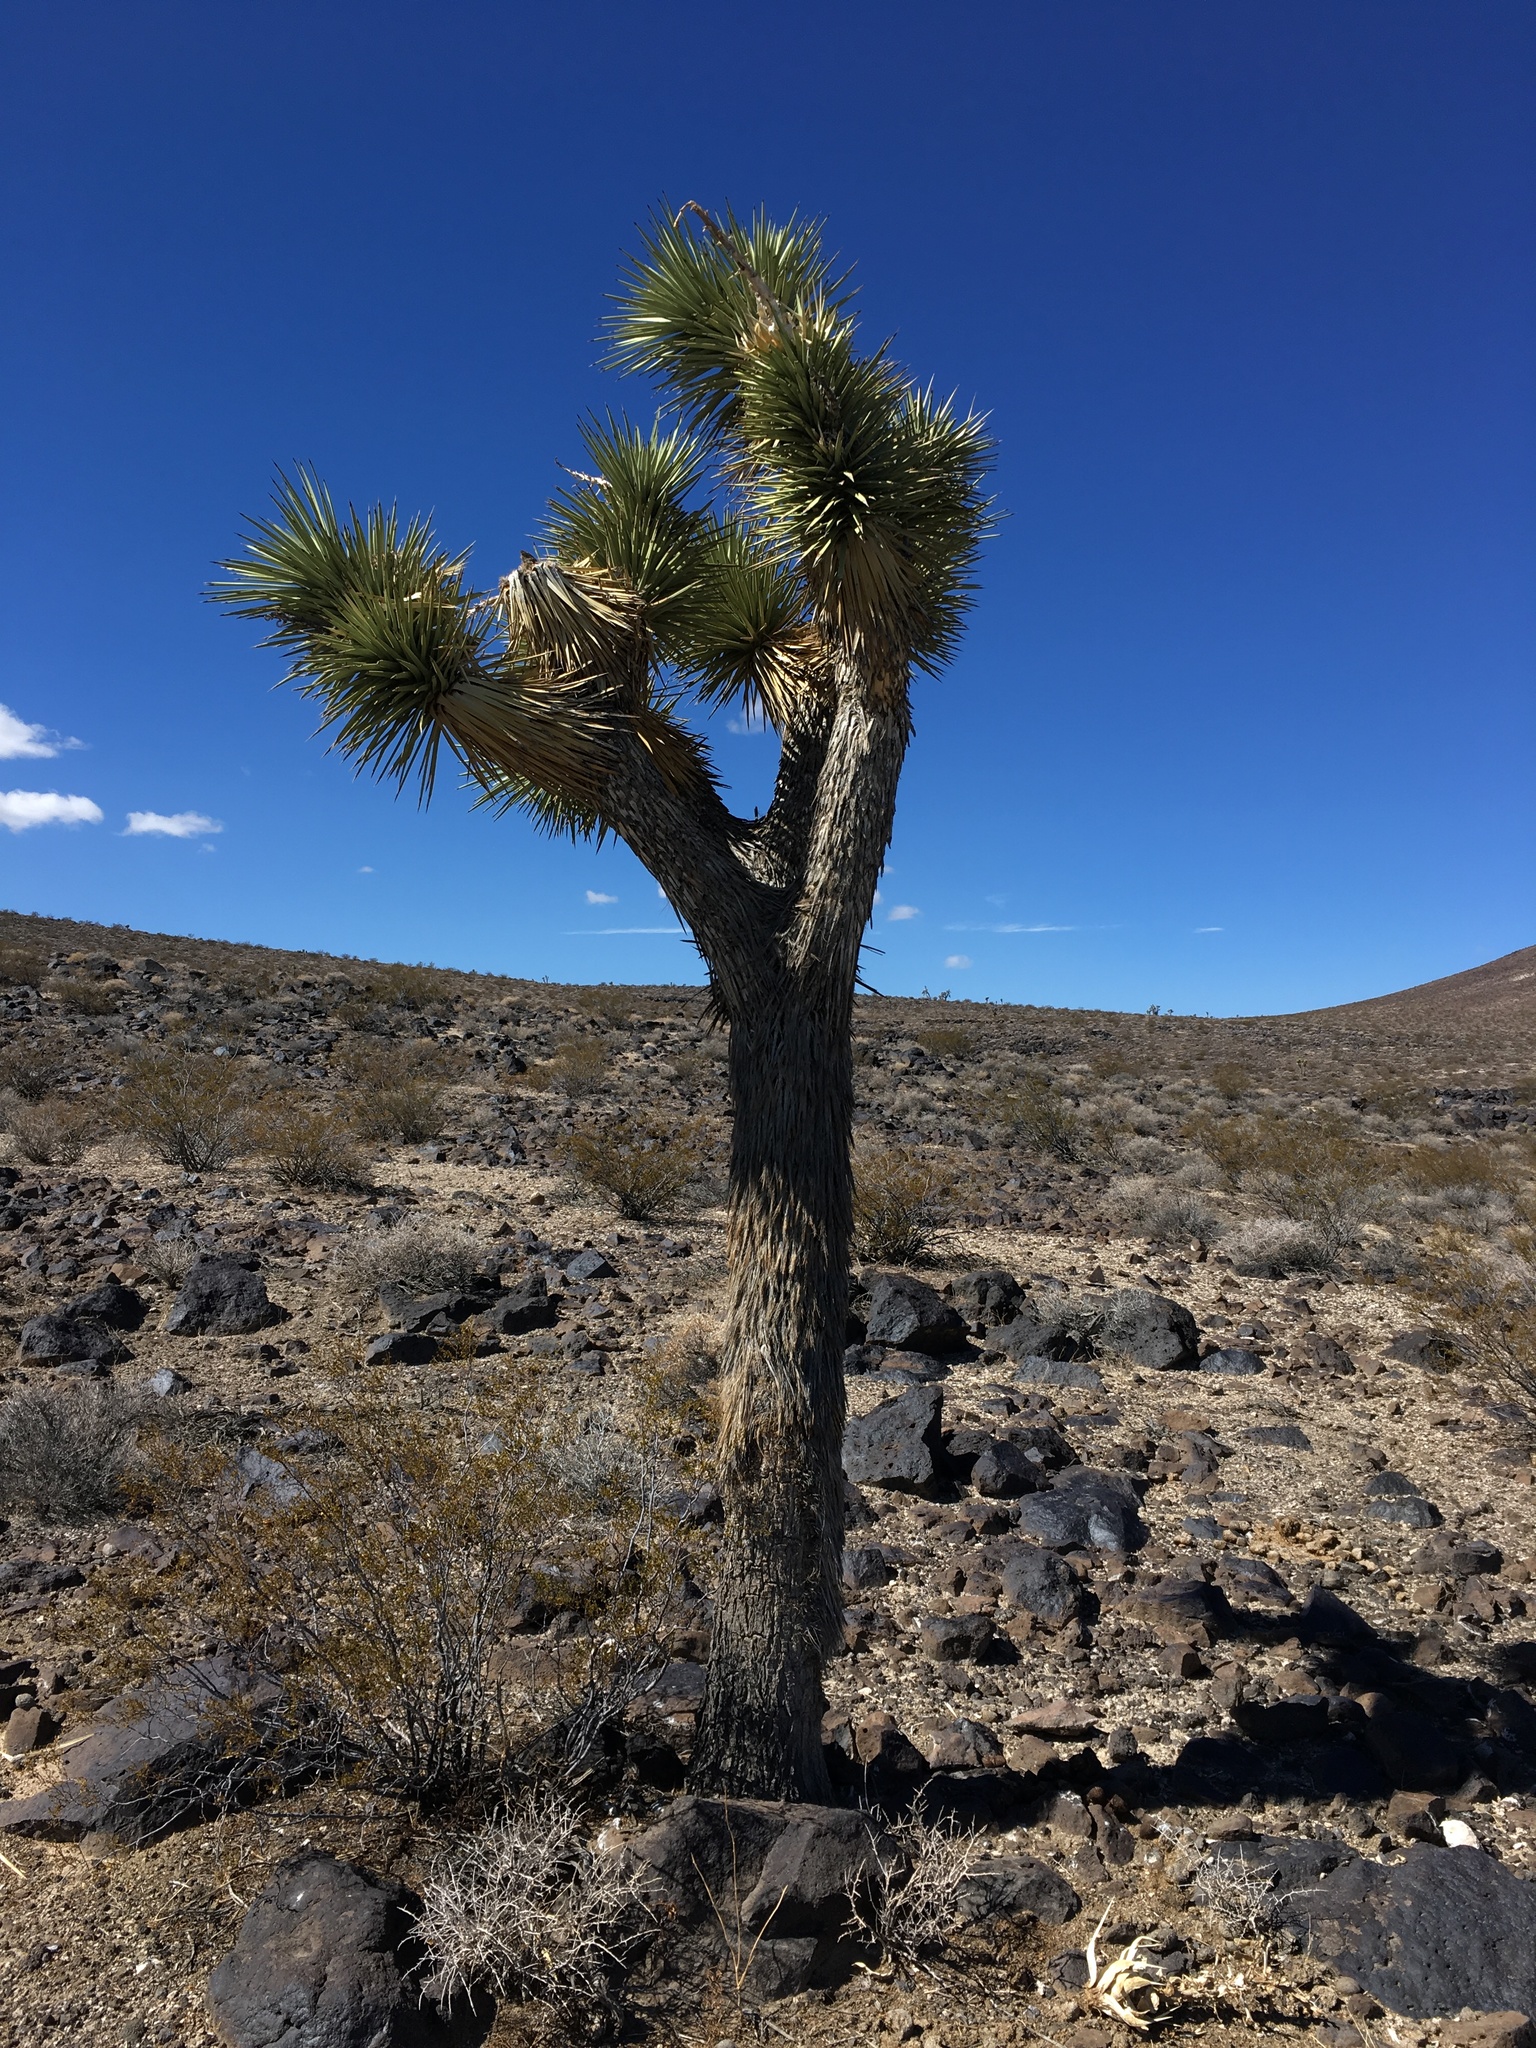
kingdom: Plantae
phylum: Tracheophyta
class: Liliopsida
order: Asparagales
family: Asparagaceae
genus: Yucca
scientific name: Yucca brevifolia
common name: Joshua tree
